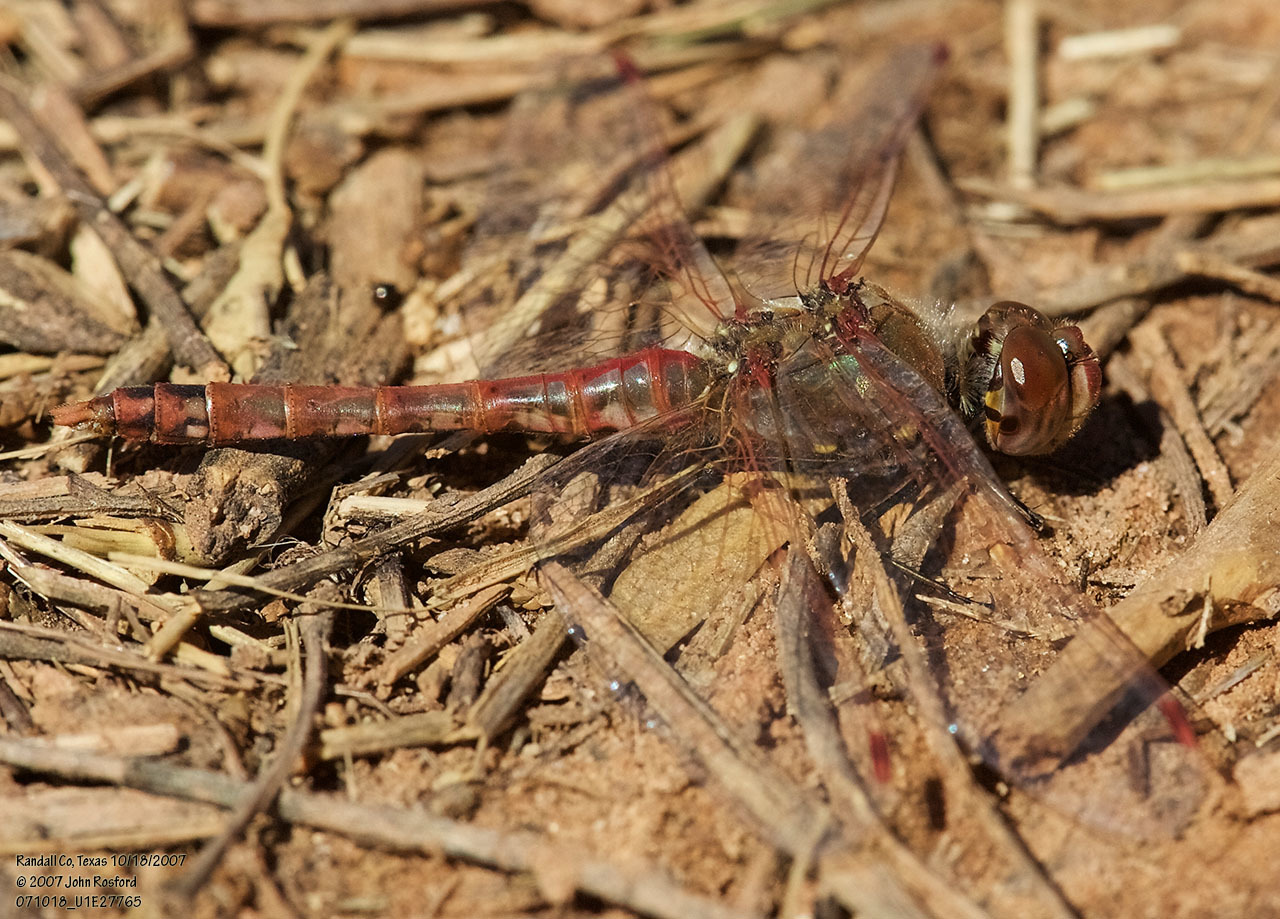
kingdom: Animalia
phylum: Arthropoda
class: Insecta
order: Odonata
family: Libellulidae
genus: Sympetrum
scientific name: Sympetrum corruptum
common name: Variegated meadowhawk
